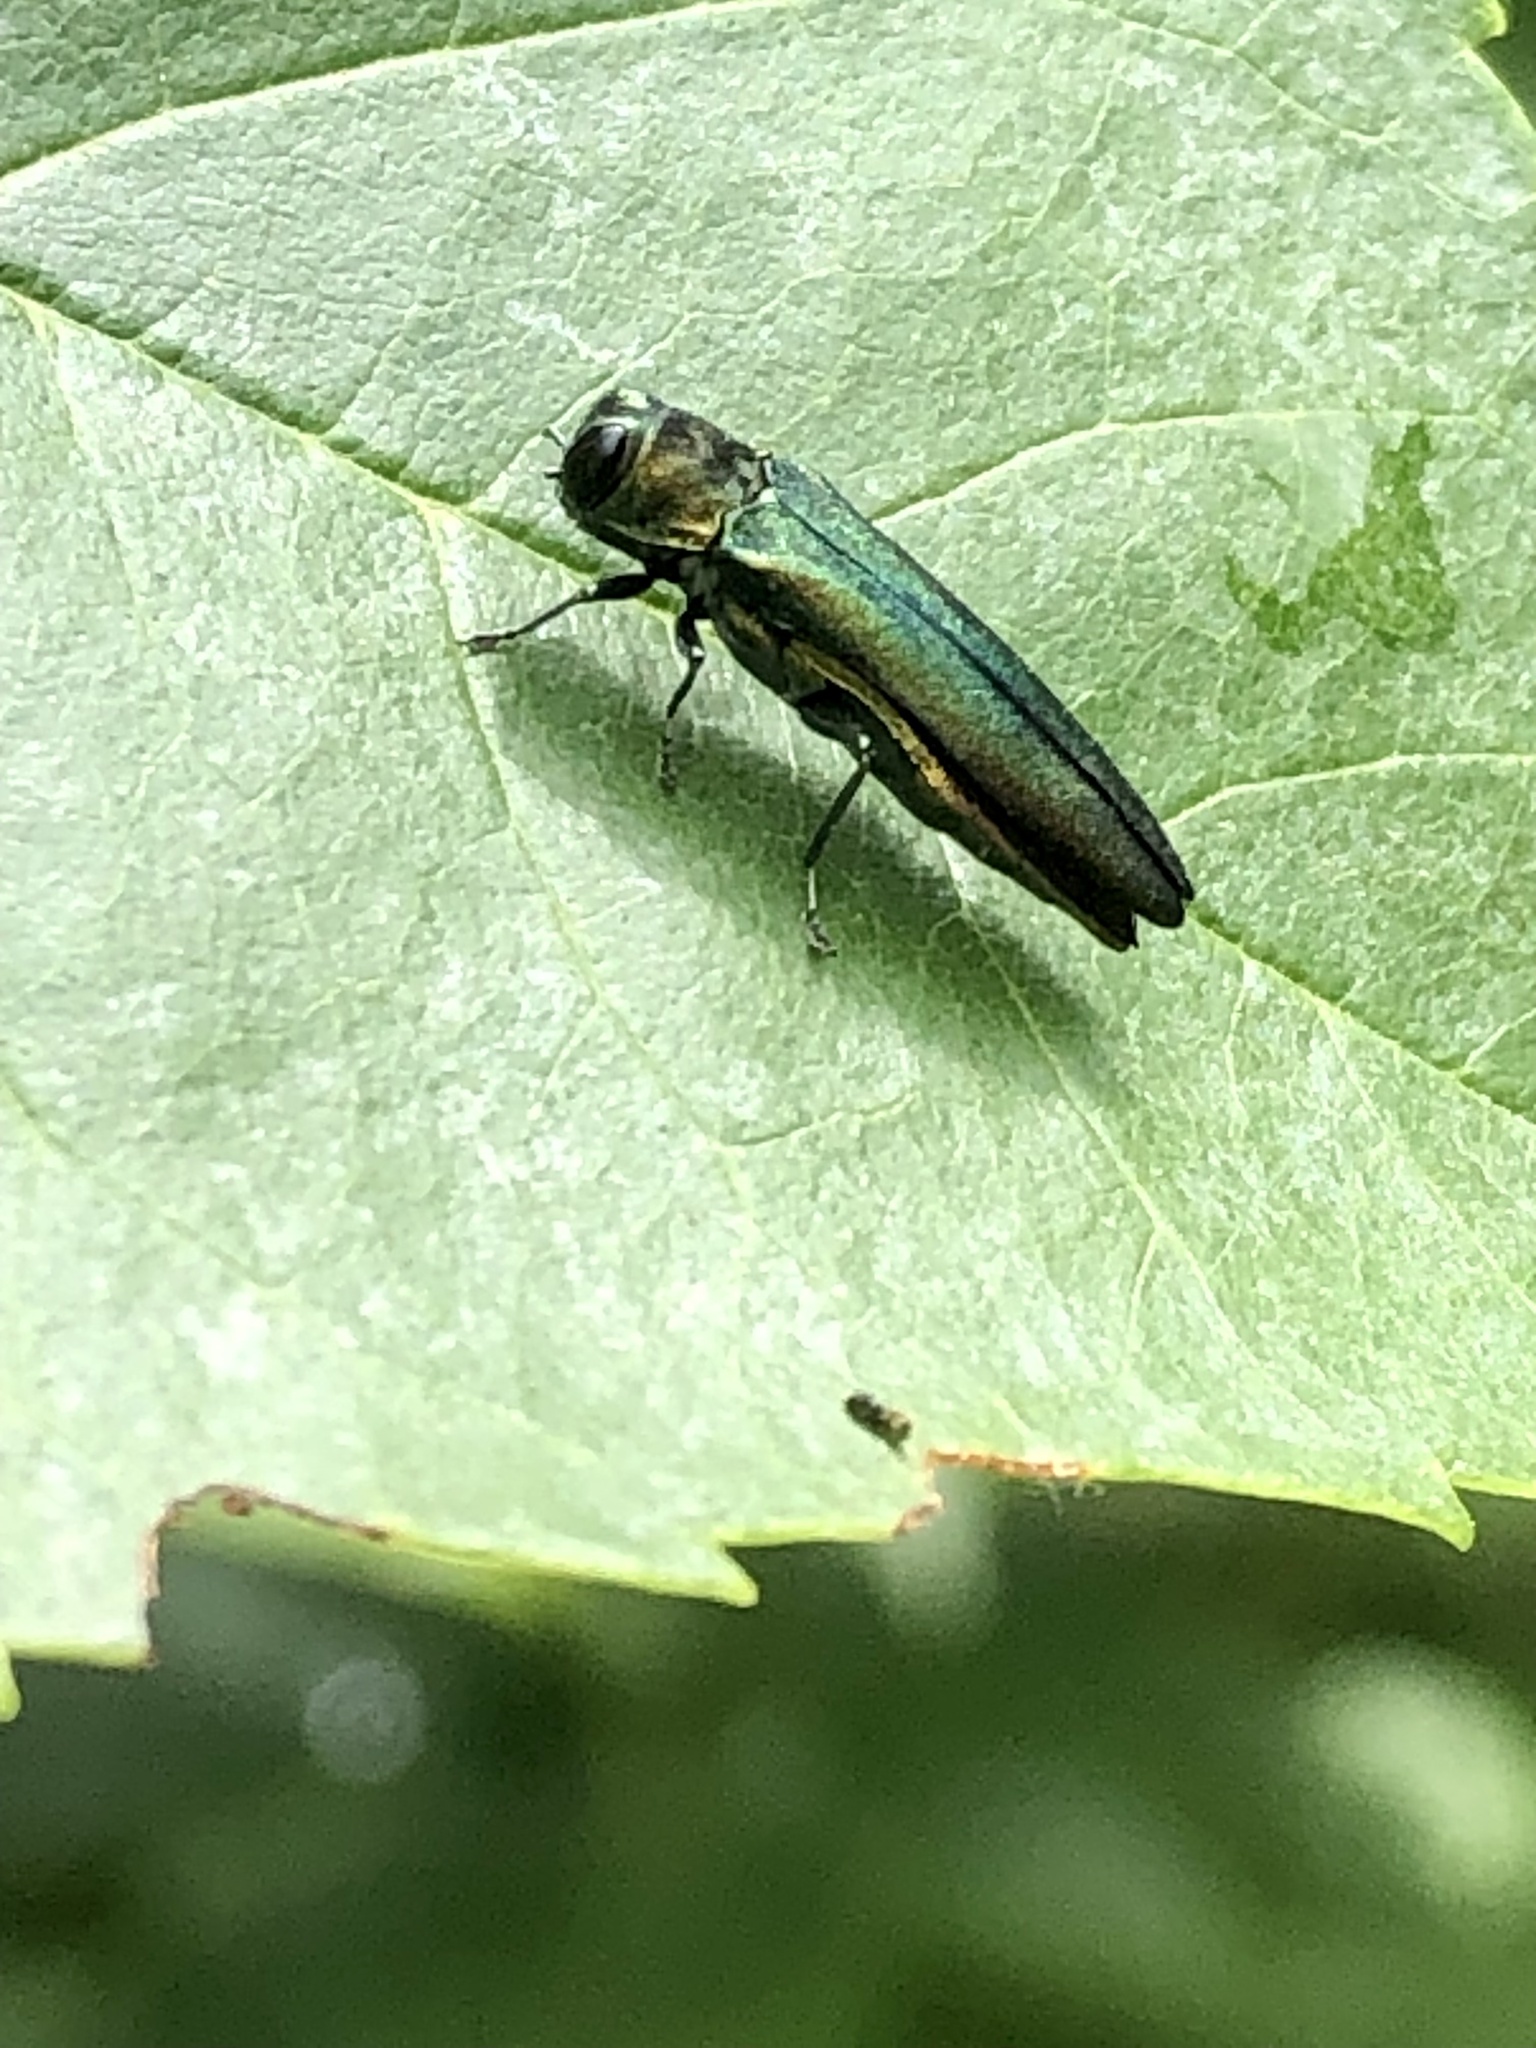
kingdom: Animalia
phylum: Arthropoda
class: Insecta
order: Coleoptera
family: Buprestidae
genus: Agrilus
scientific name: Agrilus planipennis
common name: Emerald ash borer
